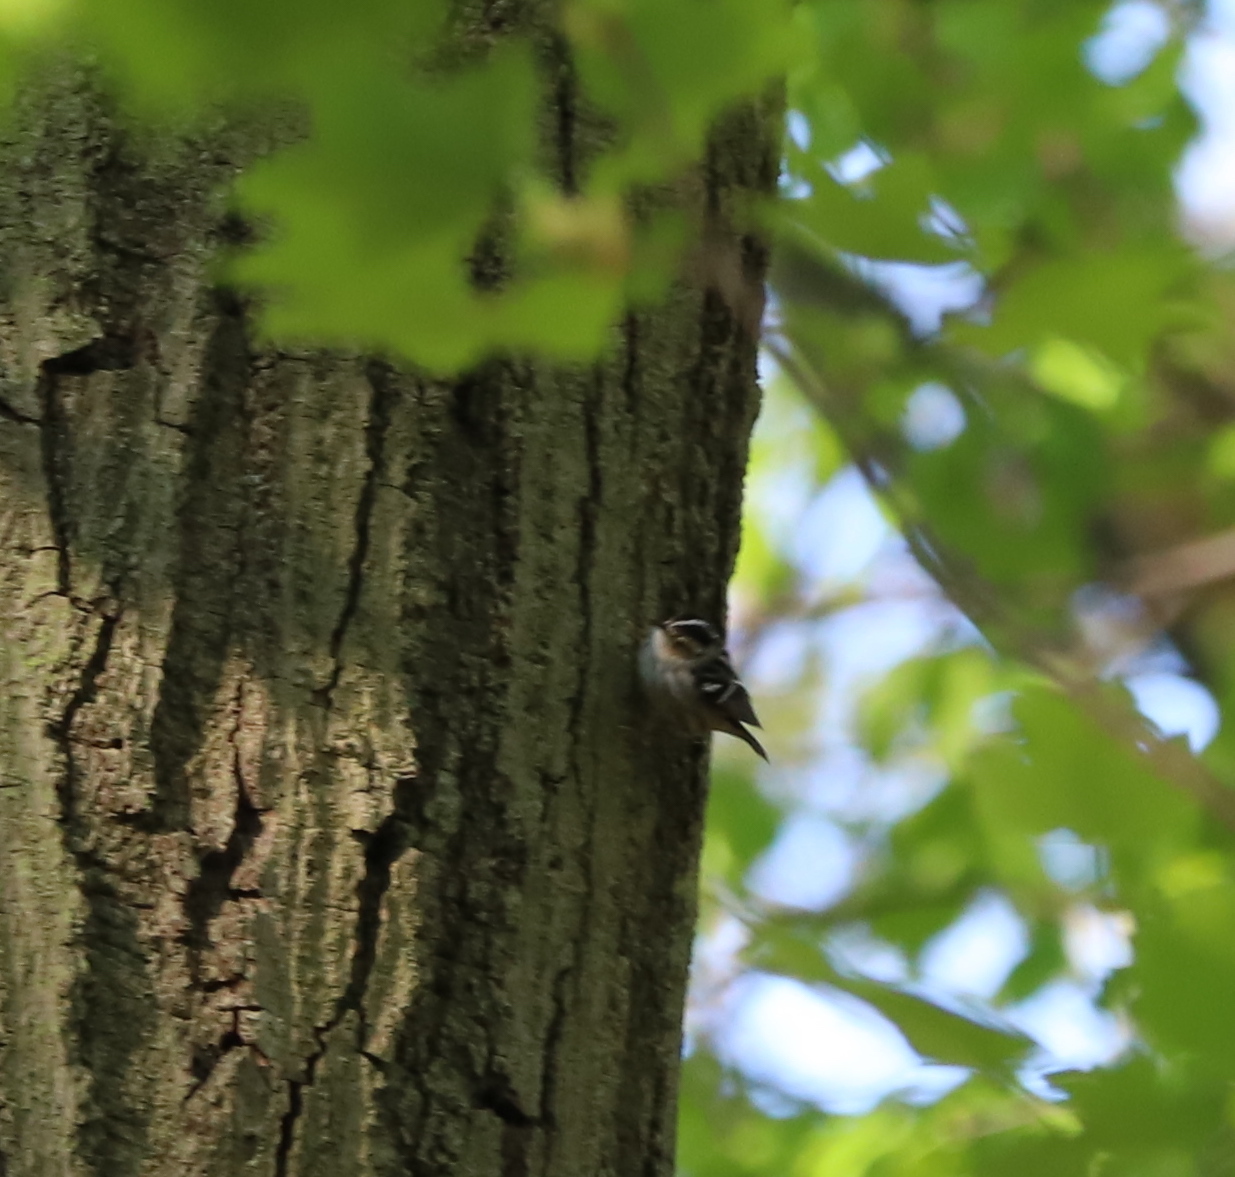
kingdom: Animalia
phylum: Chordata
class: Aves
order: Passeriformes
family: Parulidae
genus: Mniotilta
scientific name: Mniotilta varia
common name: Black-and-white warbler
